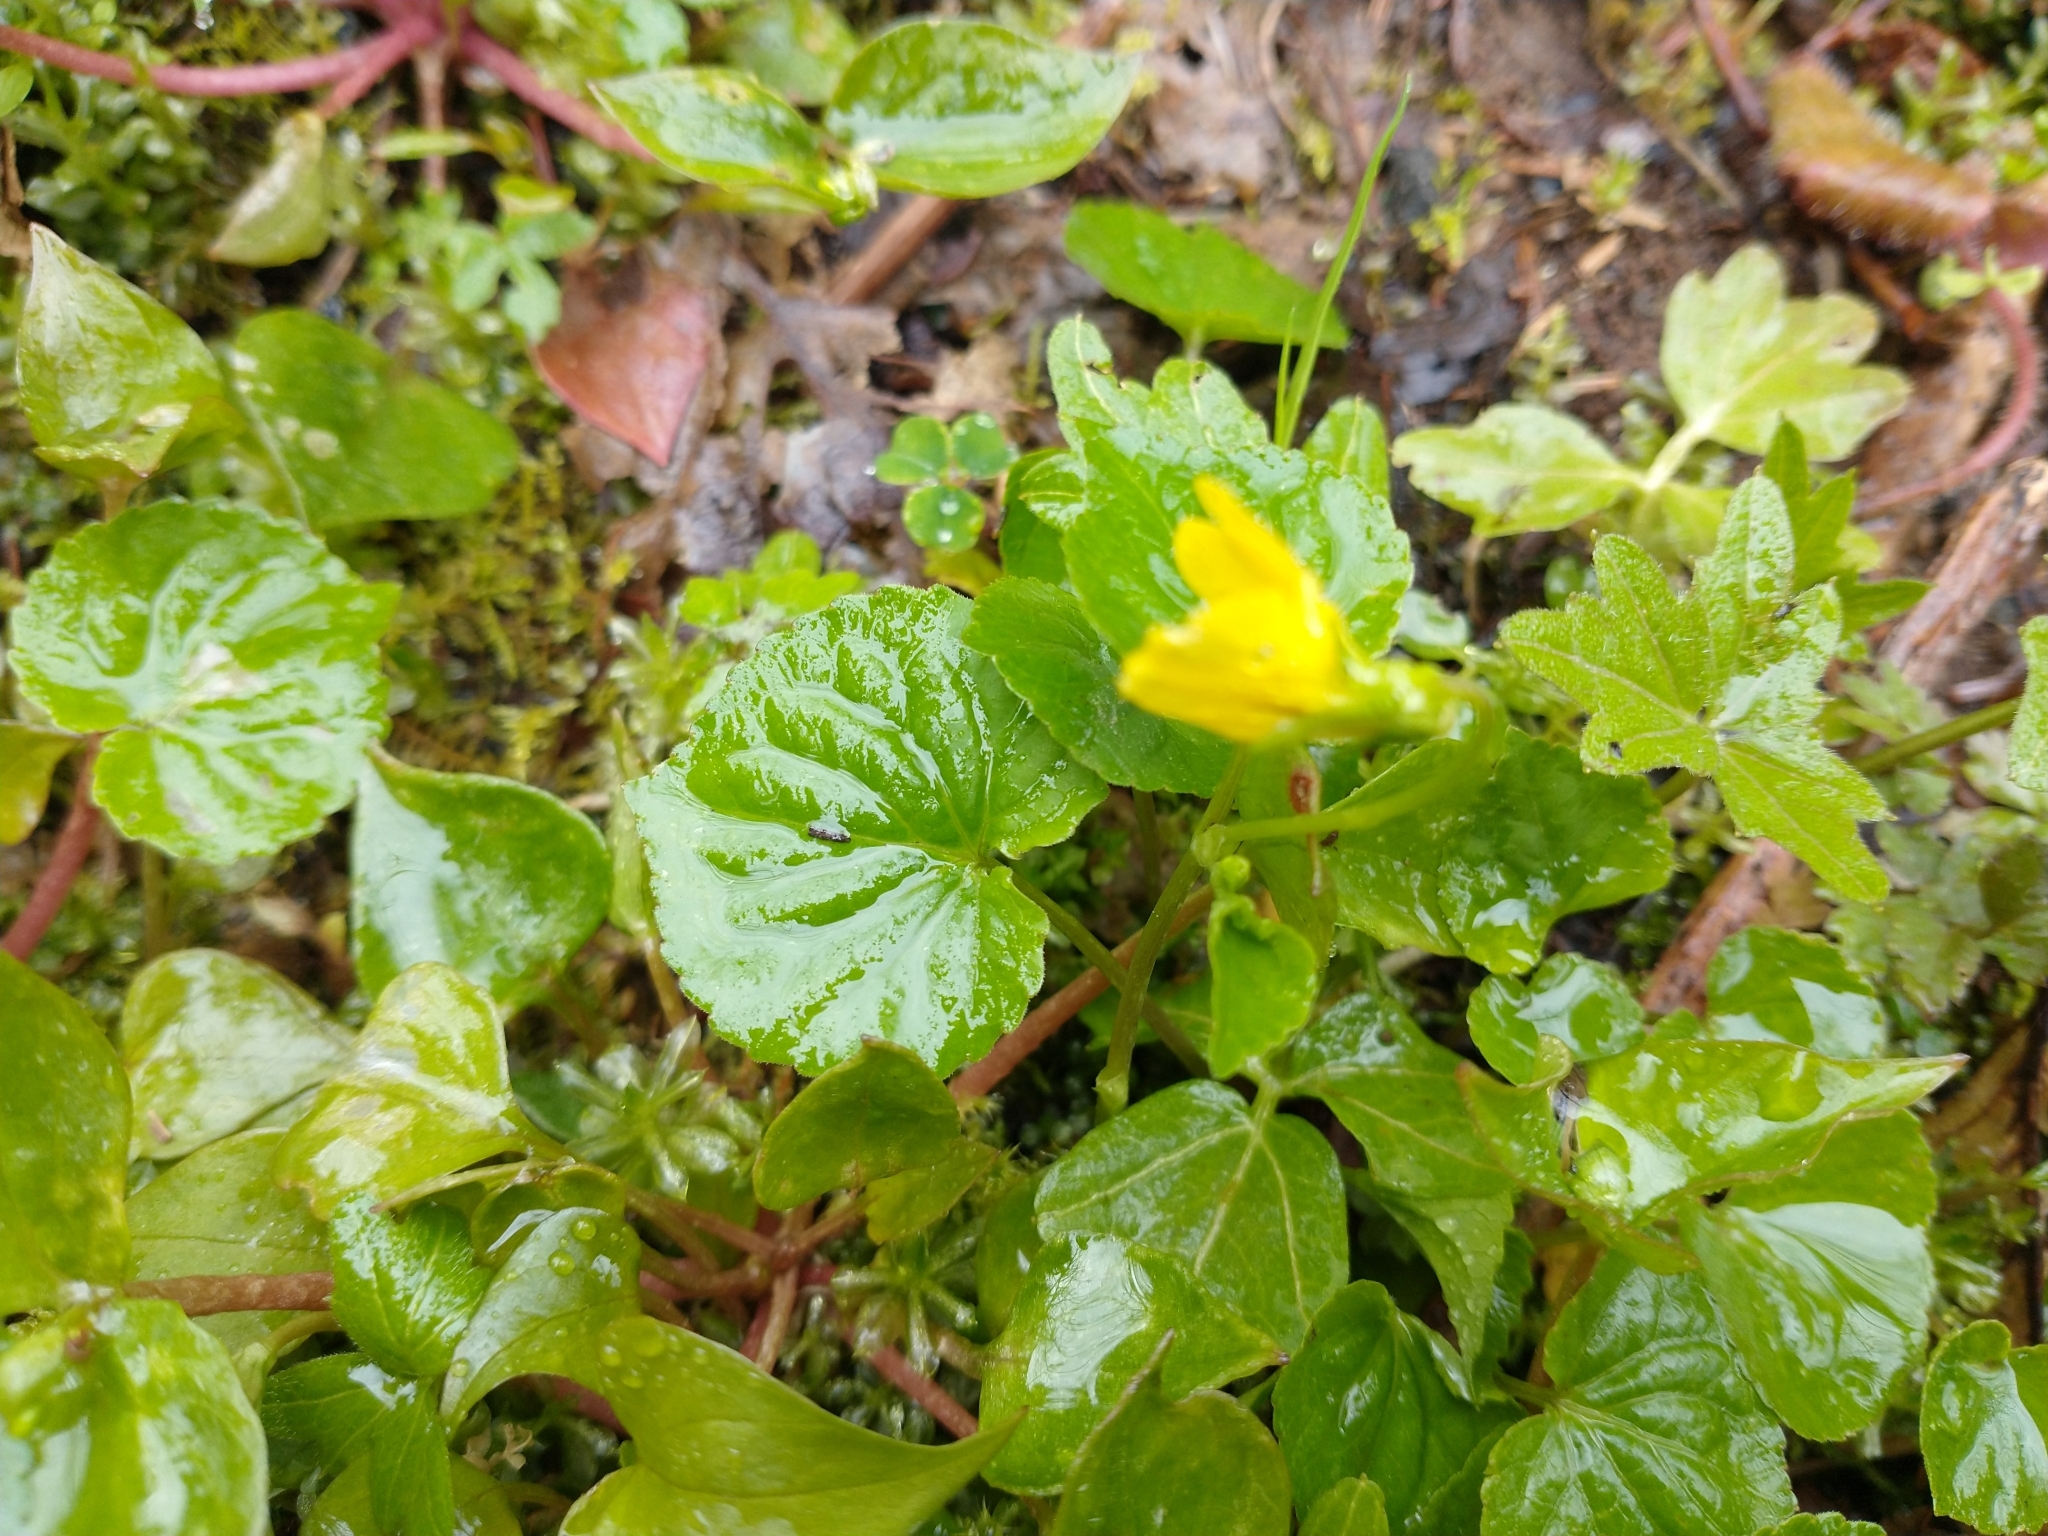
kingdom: Plantae
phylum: Tracheophyta
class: Magnoliopsida
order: Malpighiales
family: Violaceae
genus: Viola
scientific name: Viola glabella
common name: Stream violet
